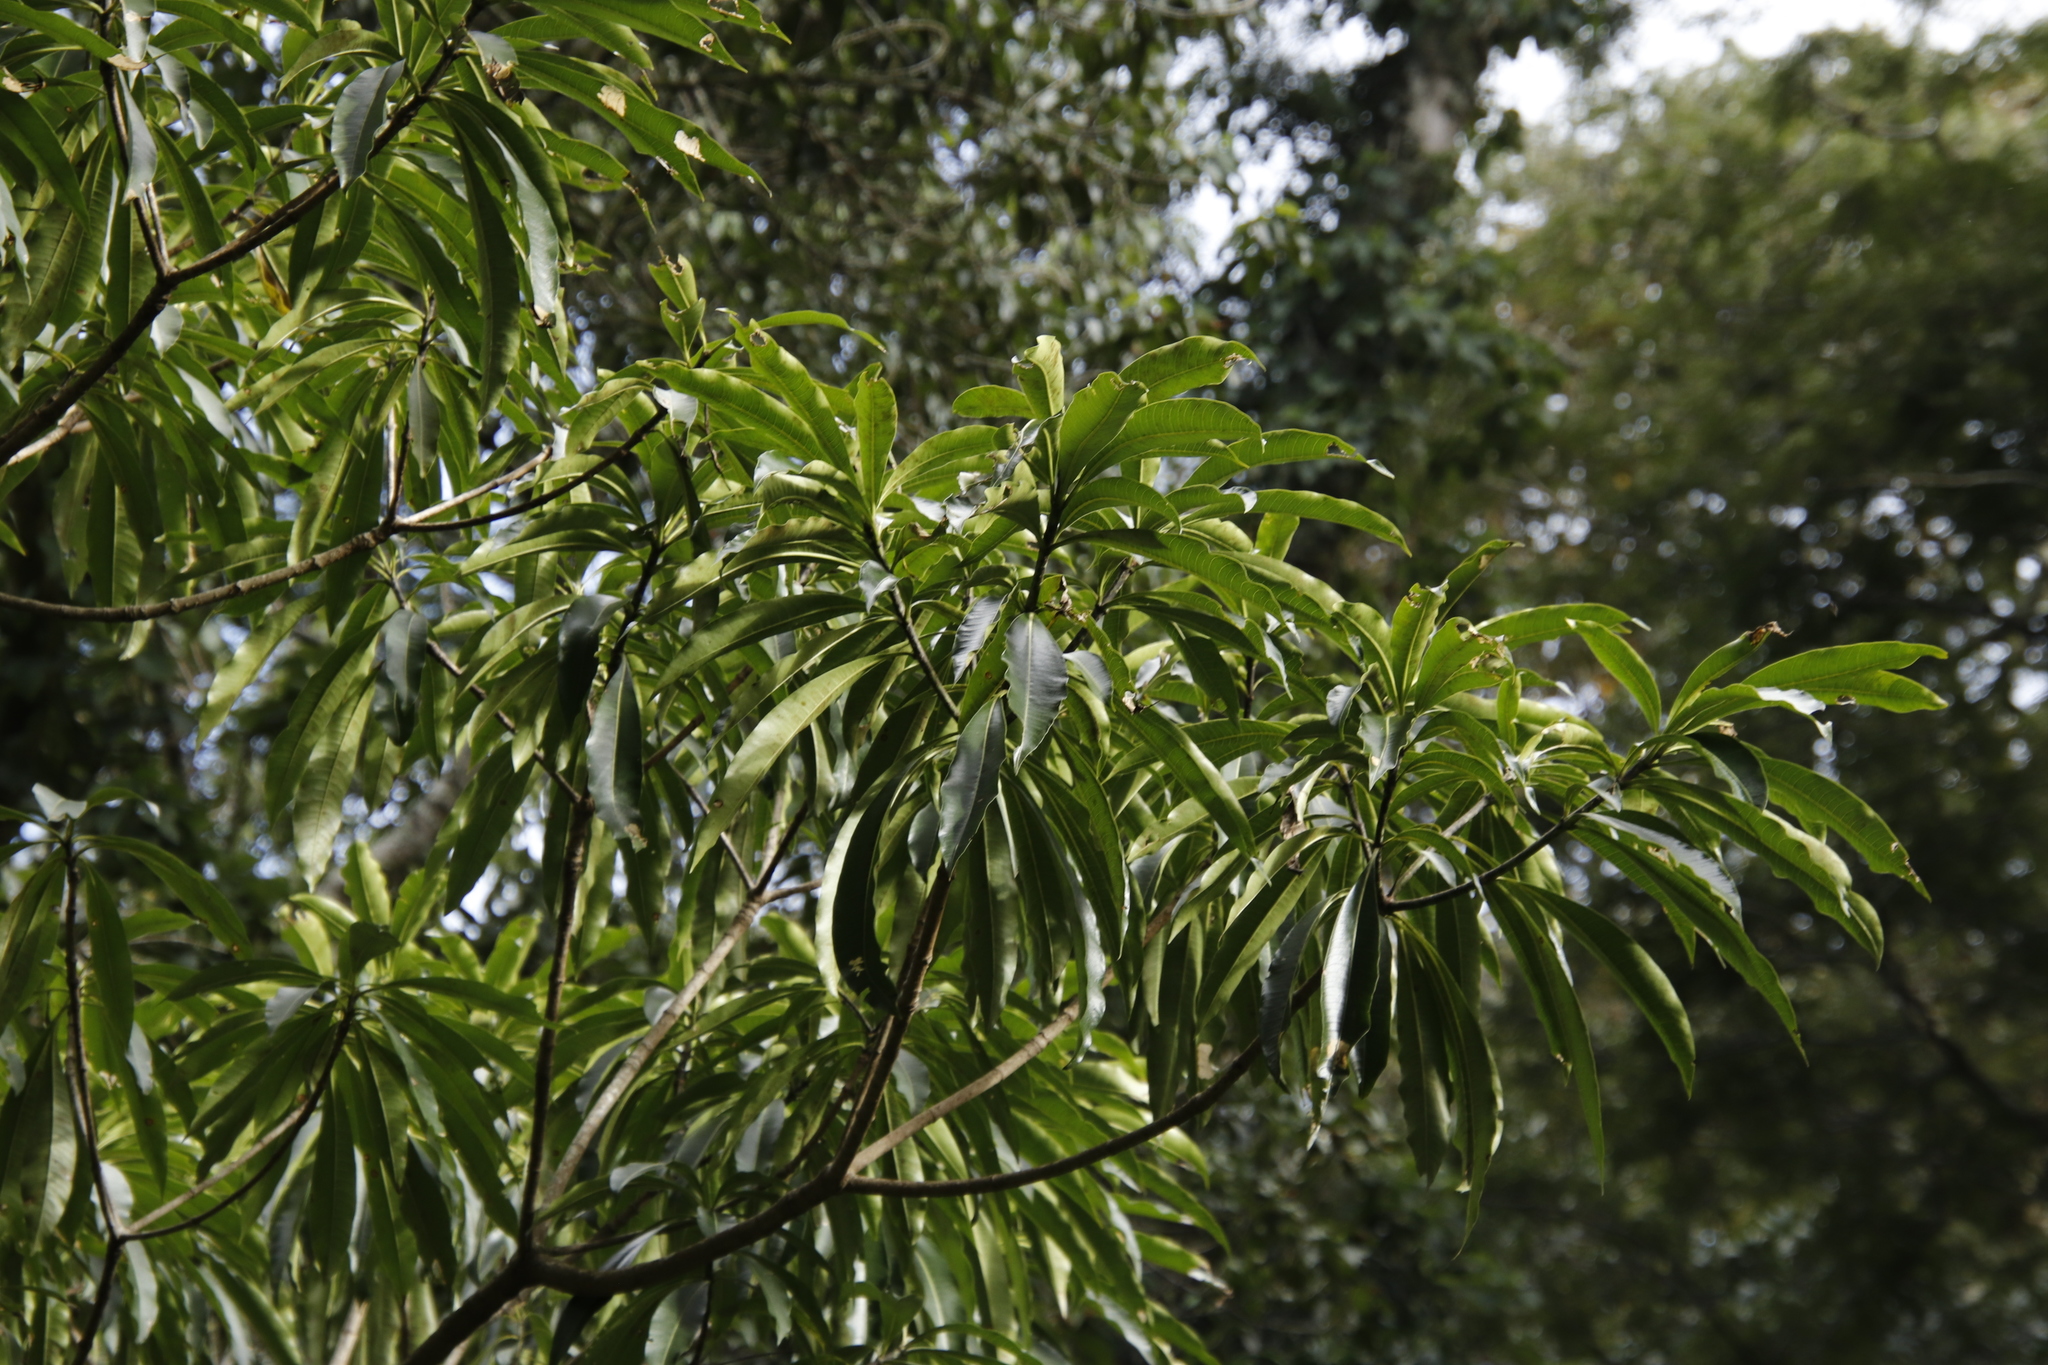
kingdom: Plantae
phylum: Tracheophyta
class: Magnoliopsida
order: Gentianales
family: Apocynaceae
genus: Rauvolfia
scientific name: Rauvolfia caffra
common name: Quininetree
